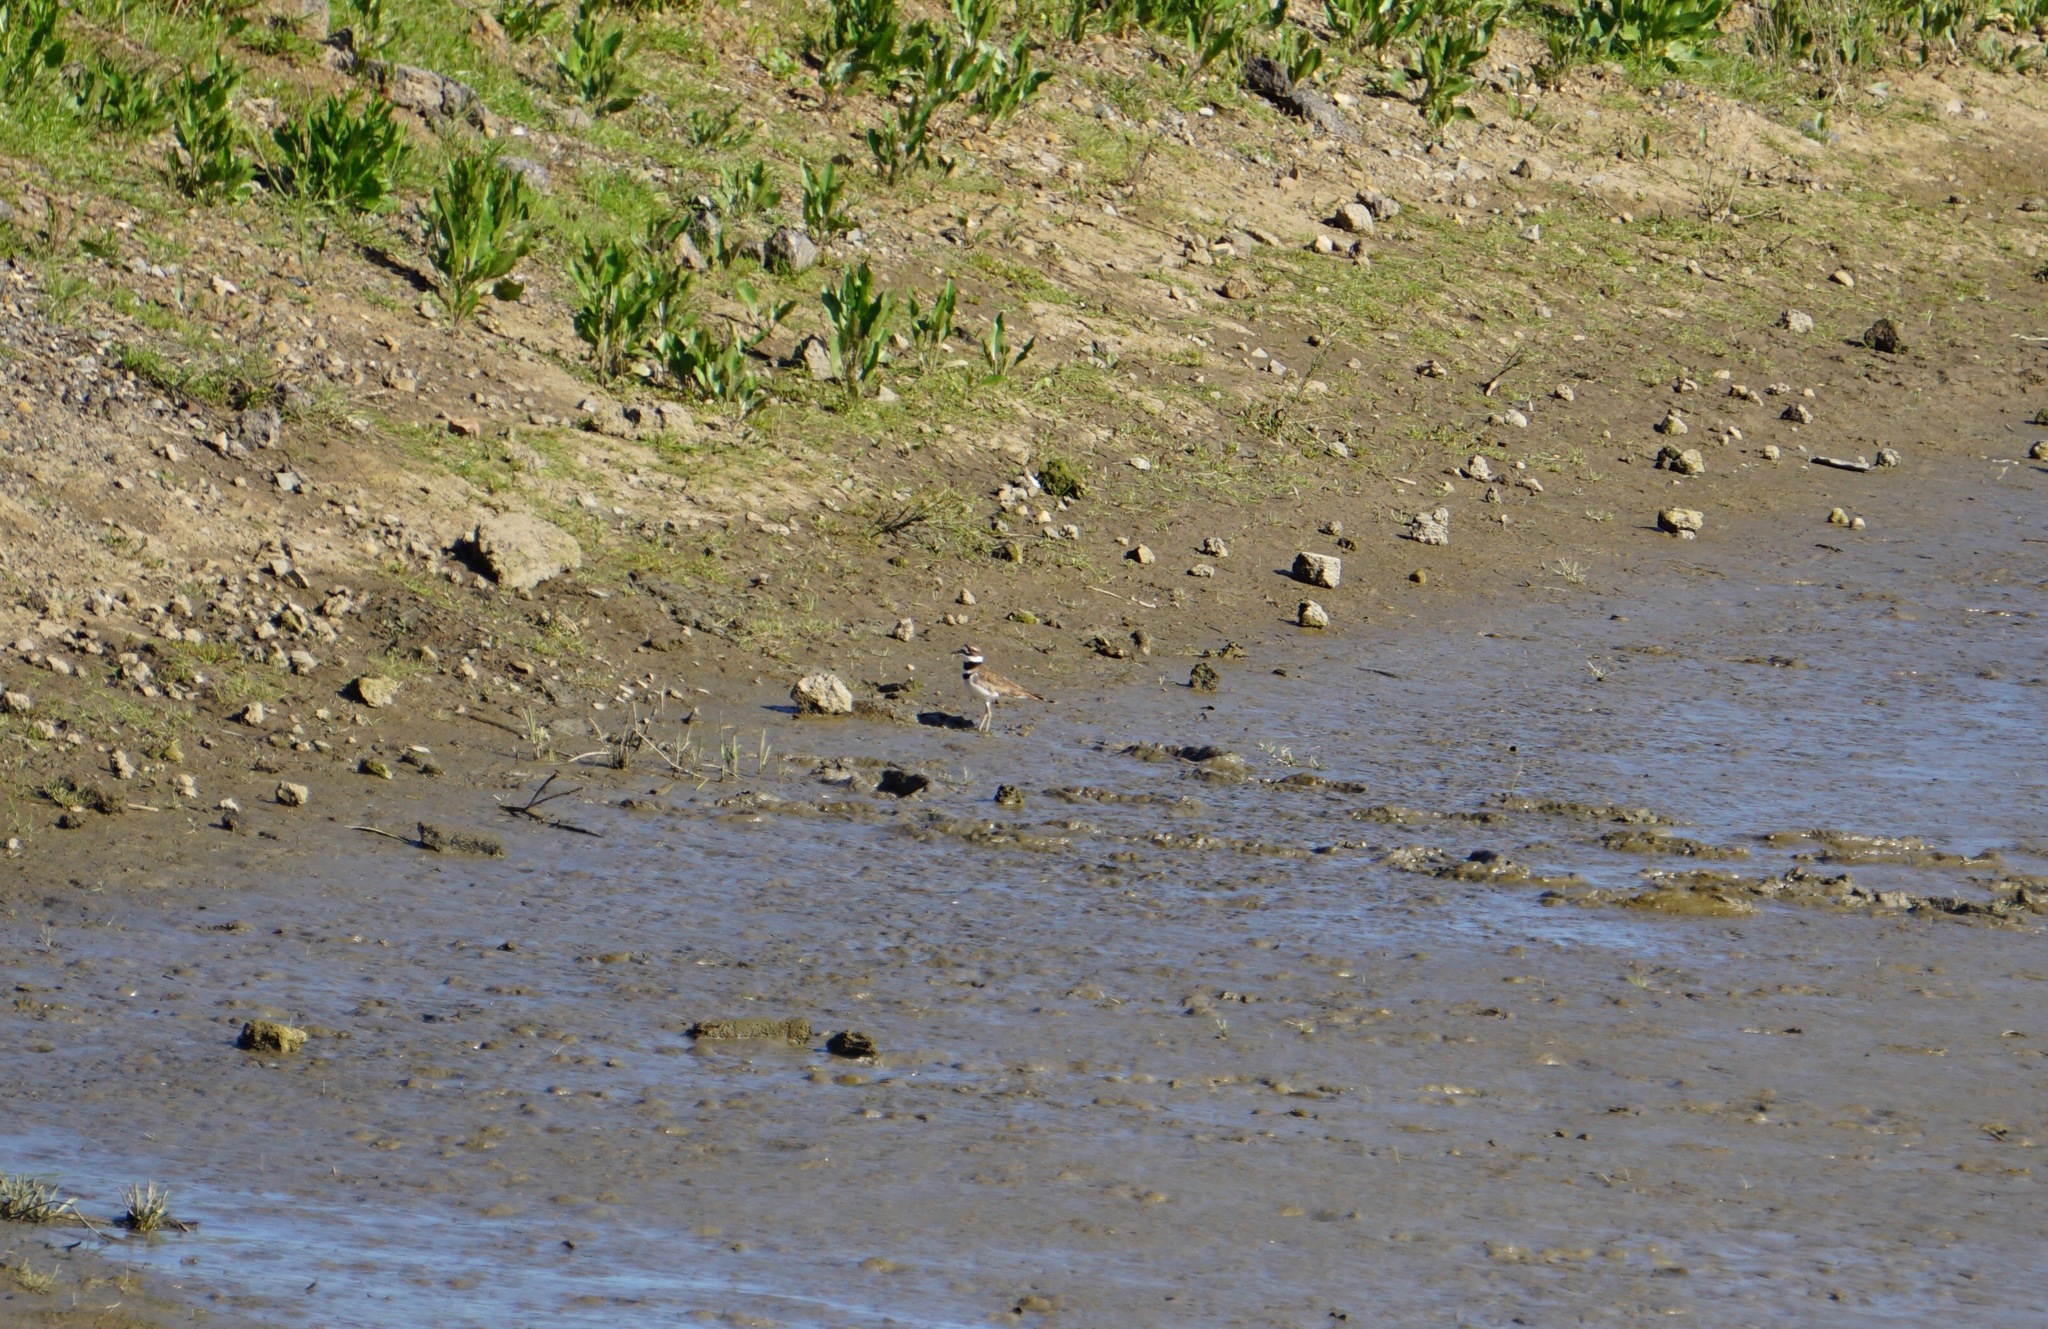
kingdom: Animalia
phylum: Chordata
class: Aves
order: Charadriiformes
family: Charadriidae
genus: Charadrius
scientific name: Charadrius vociferus
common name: Killdeer
